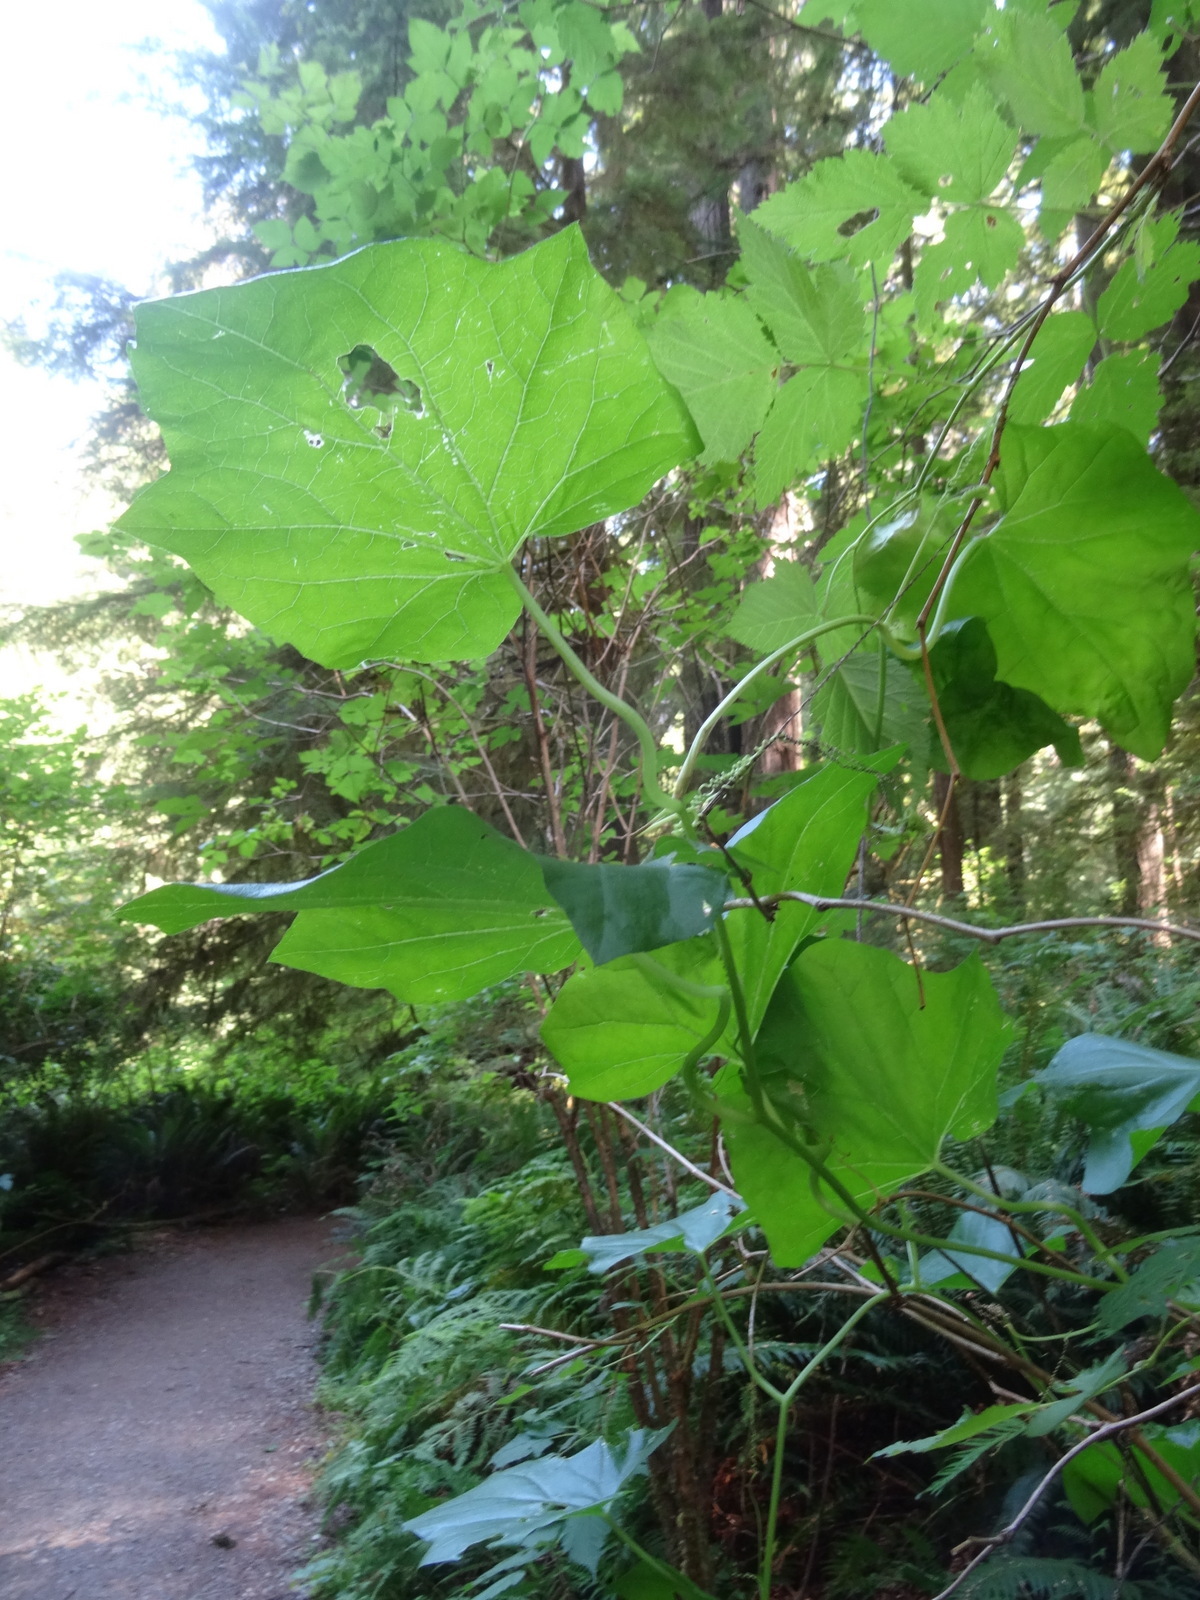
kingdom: Plantae
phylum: Tracheophyta
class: Magnoliopsida
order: Cucurbitales
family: Cucurbitaceae
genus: Marah
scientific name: Marah oregana
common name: Coastal manroot
